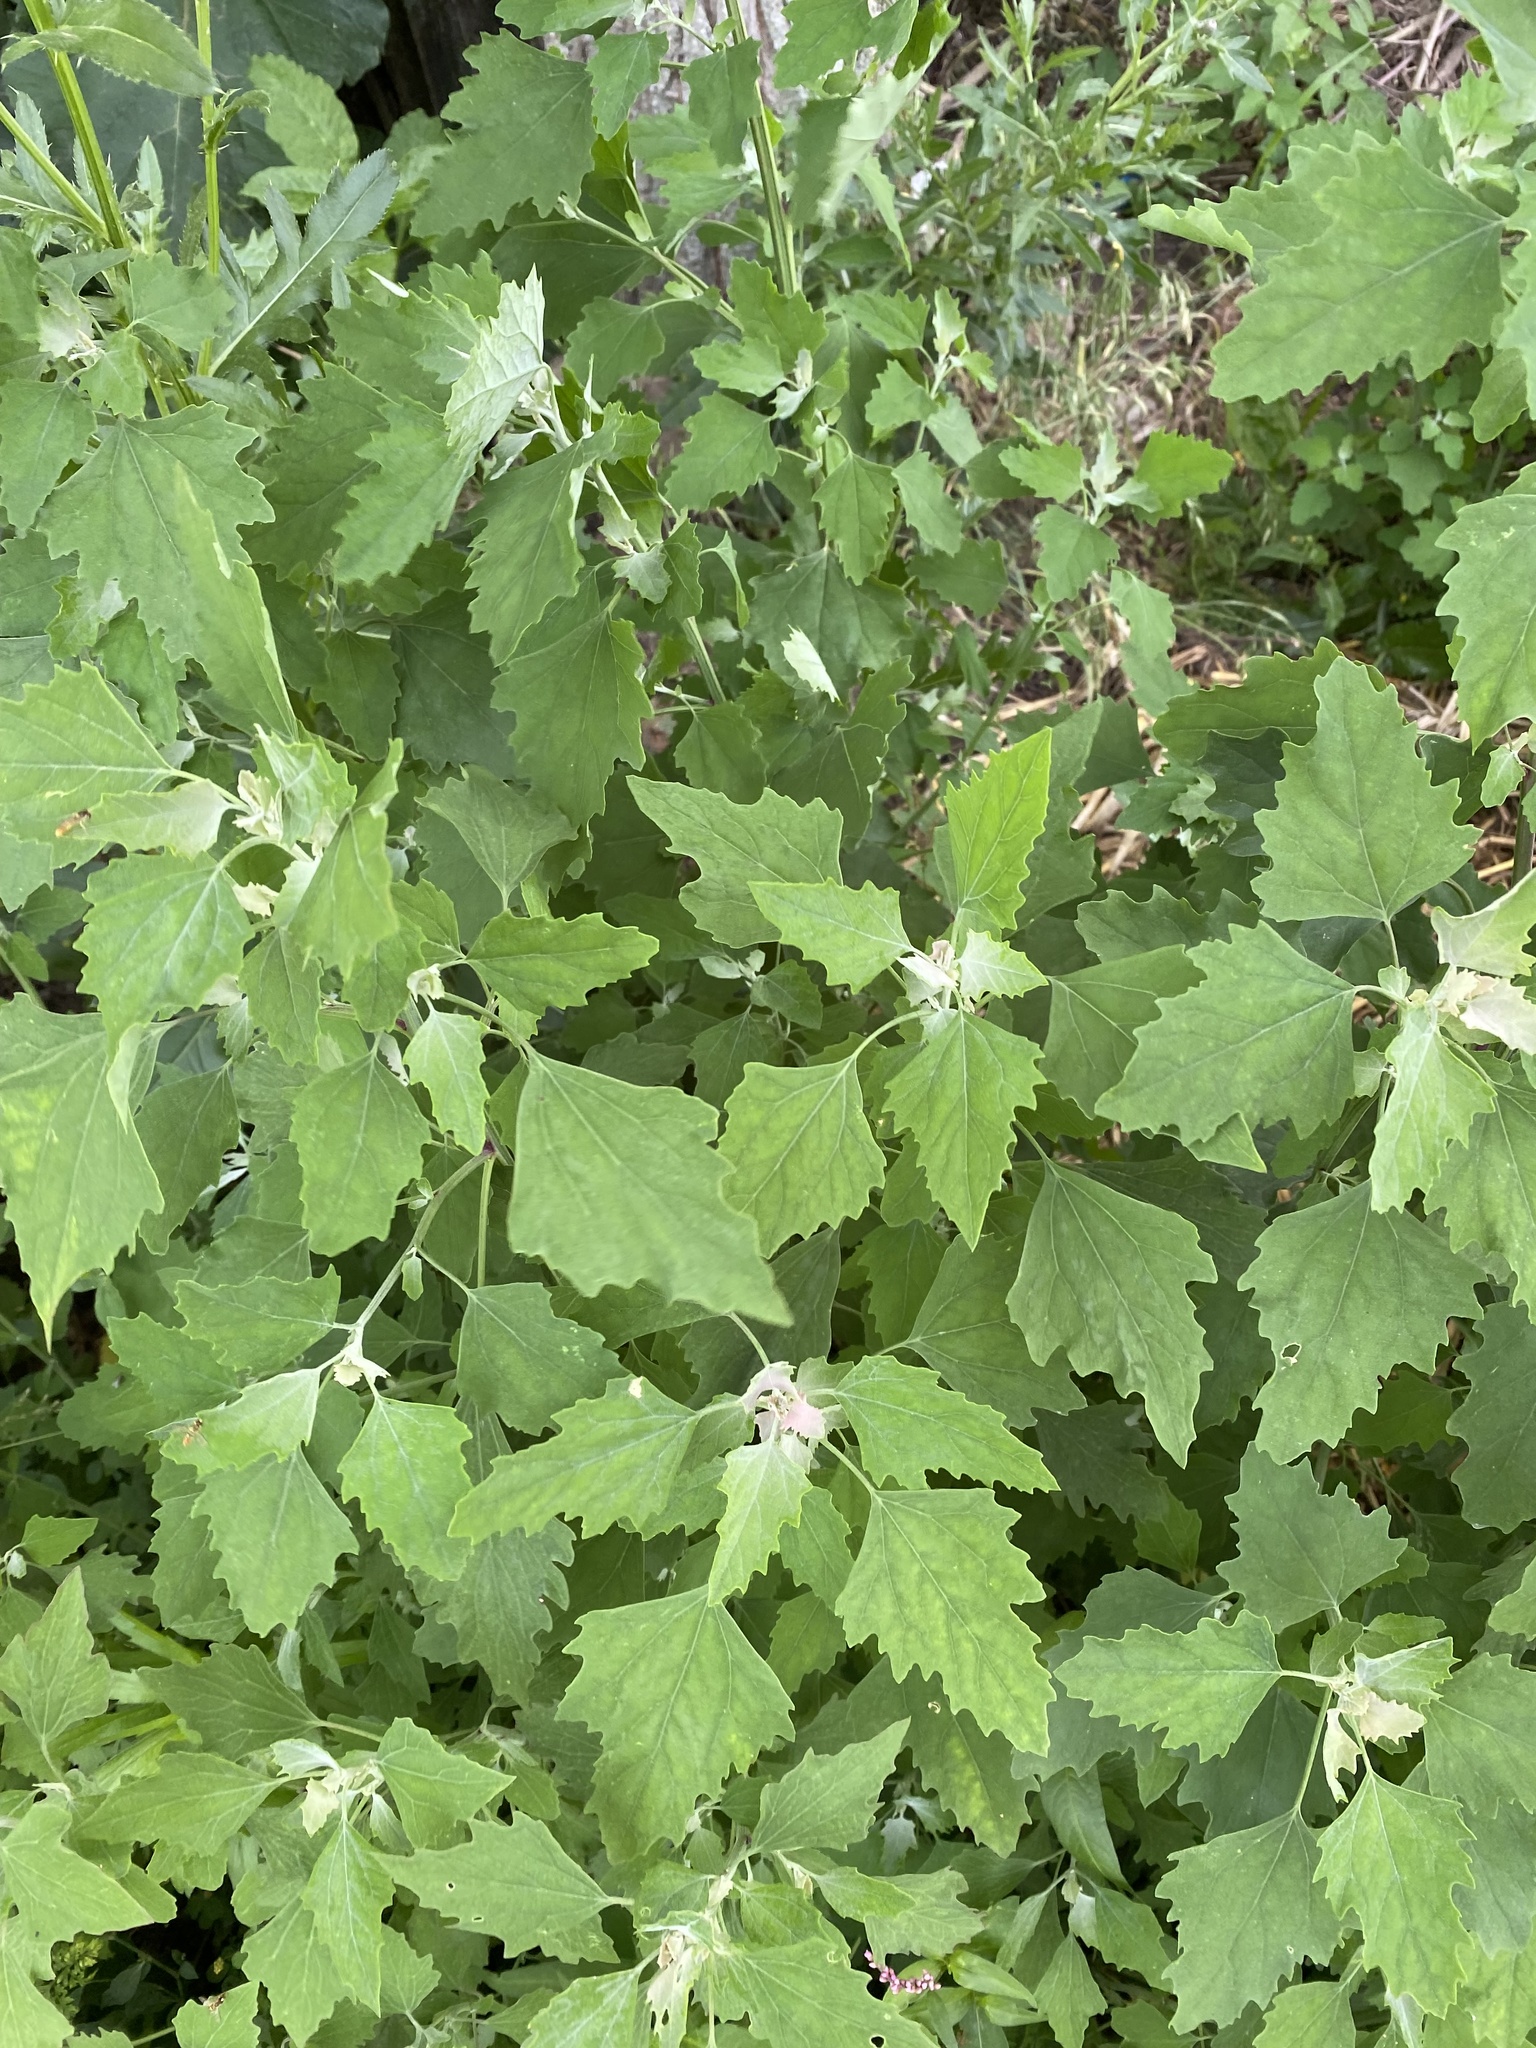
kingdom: Plantae
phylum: Tracheophyta
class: Magnoliopsida
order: Caryophyllales
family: Amaranthaceae
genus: Chenopodium
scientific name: Chenopodium album
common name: Fat-hen
